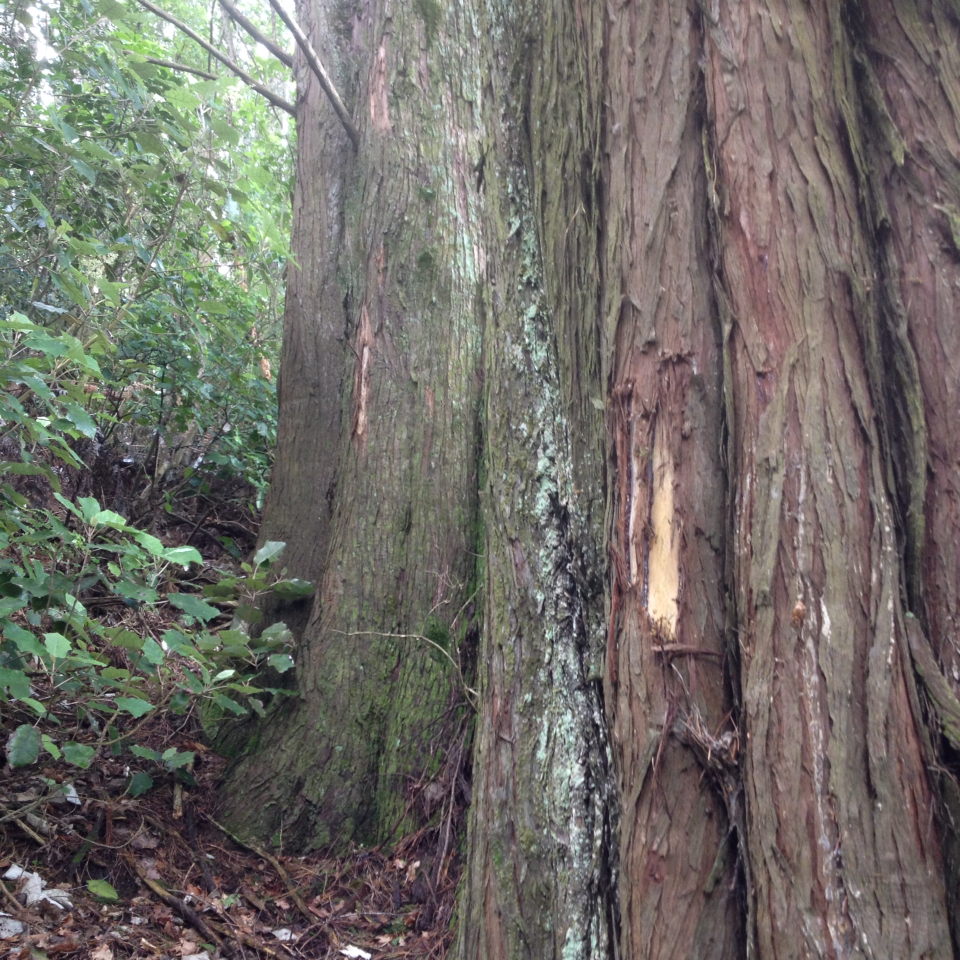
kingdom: Animalia
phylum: Chordata
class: Aves
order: Psittaciformes
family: Psittacidae
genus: Nestor
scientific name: Nestor meridionalis
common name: New zealand kaka
